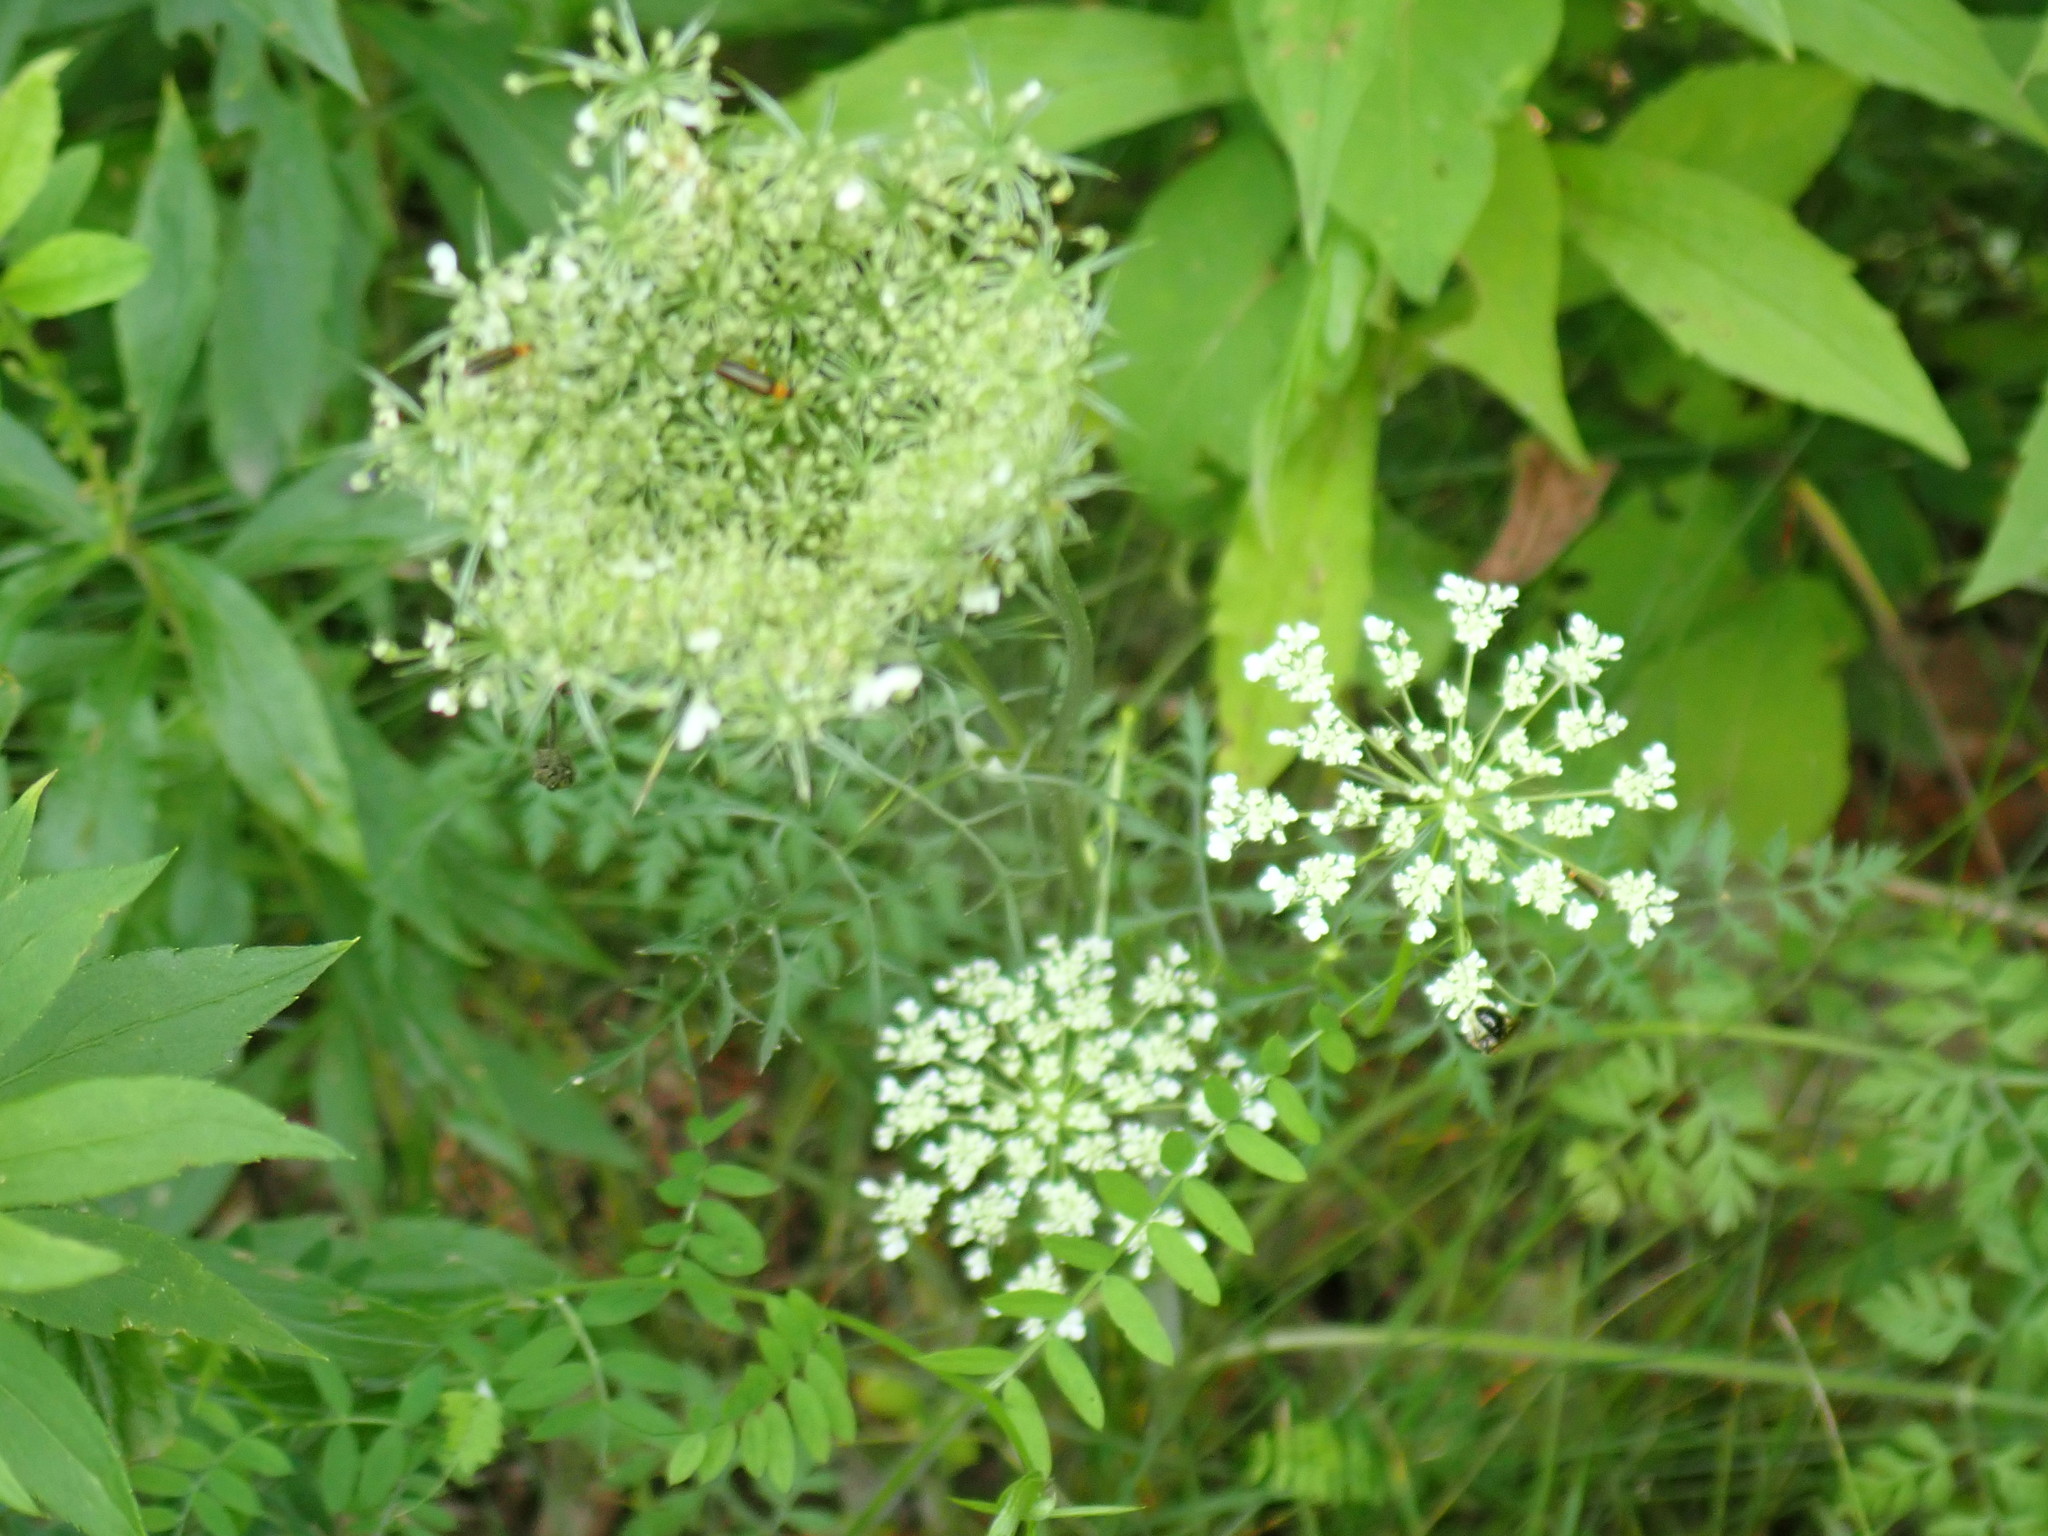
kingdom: Plantae
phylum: Tracheophyta
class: Magnoliopsida
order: Apiales
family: Apiaceae
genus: Daucus
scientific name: Daucus carota
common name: Wild carrot
